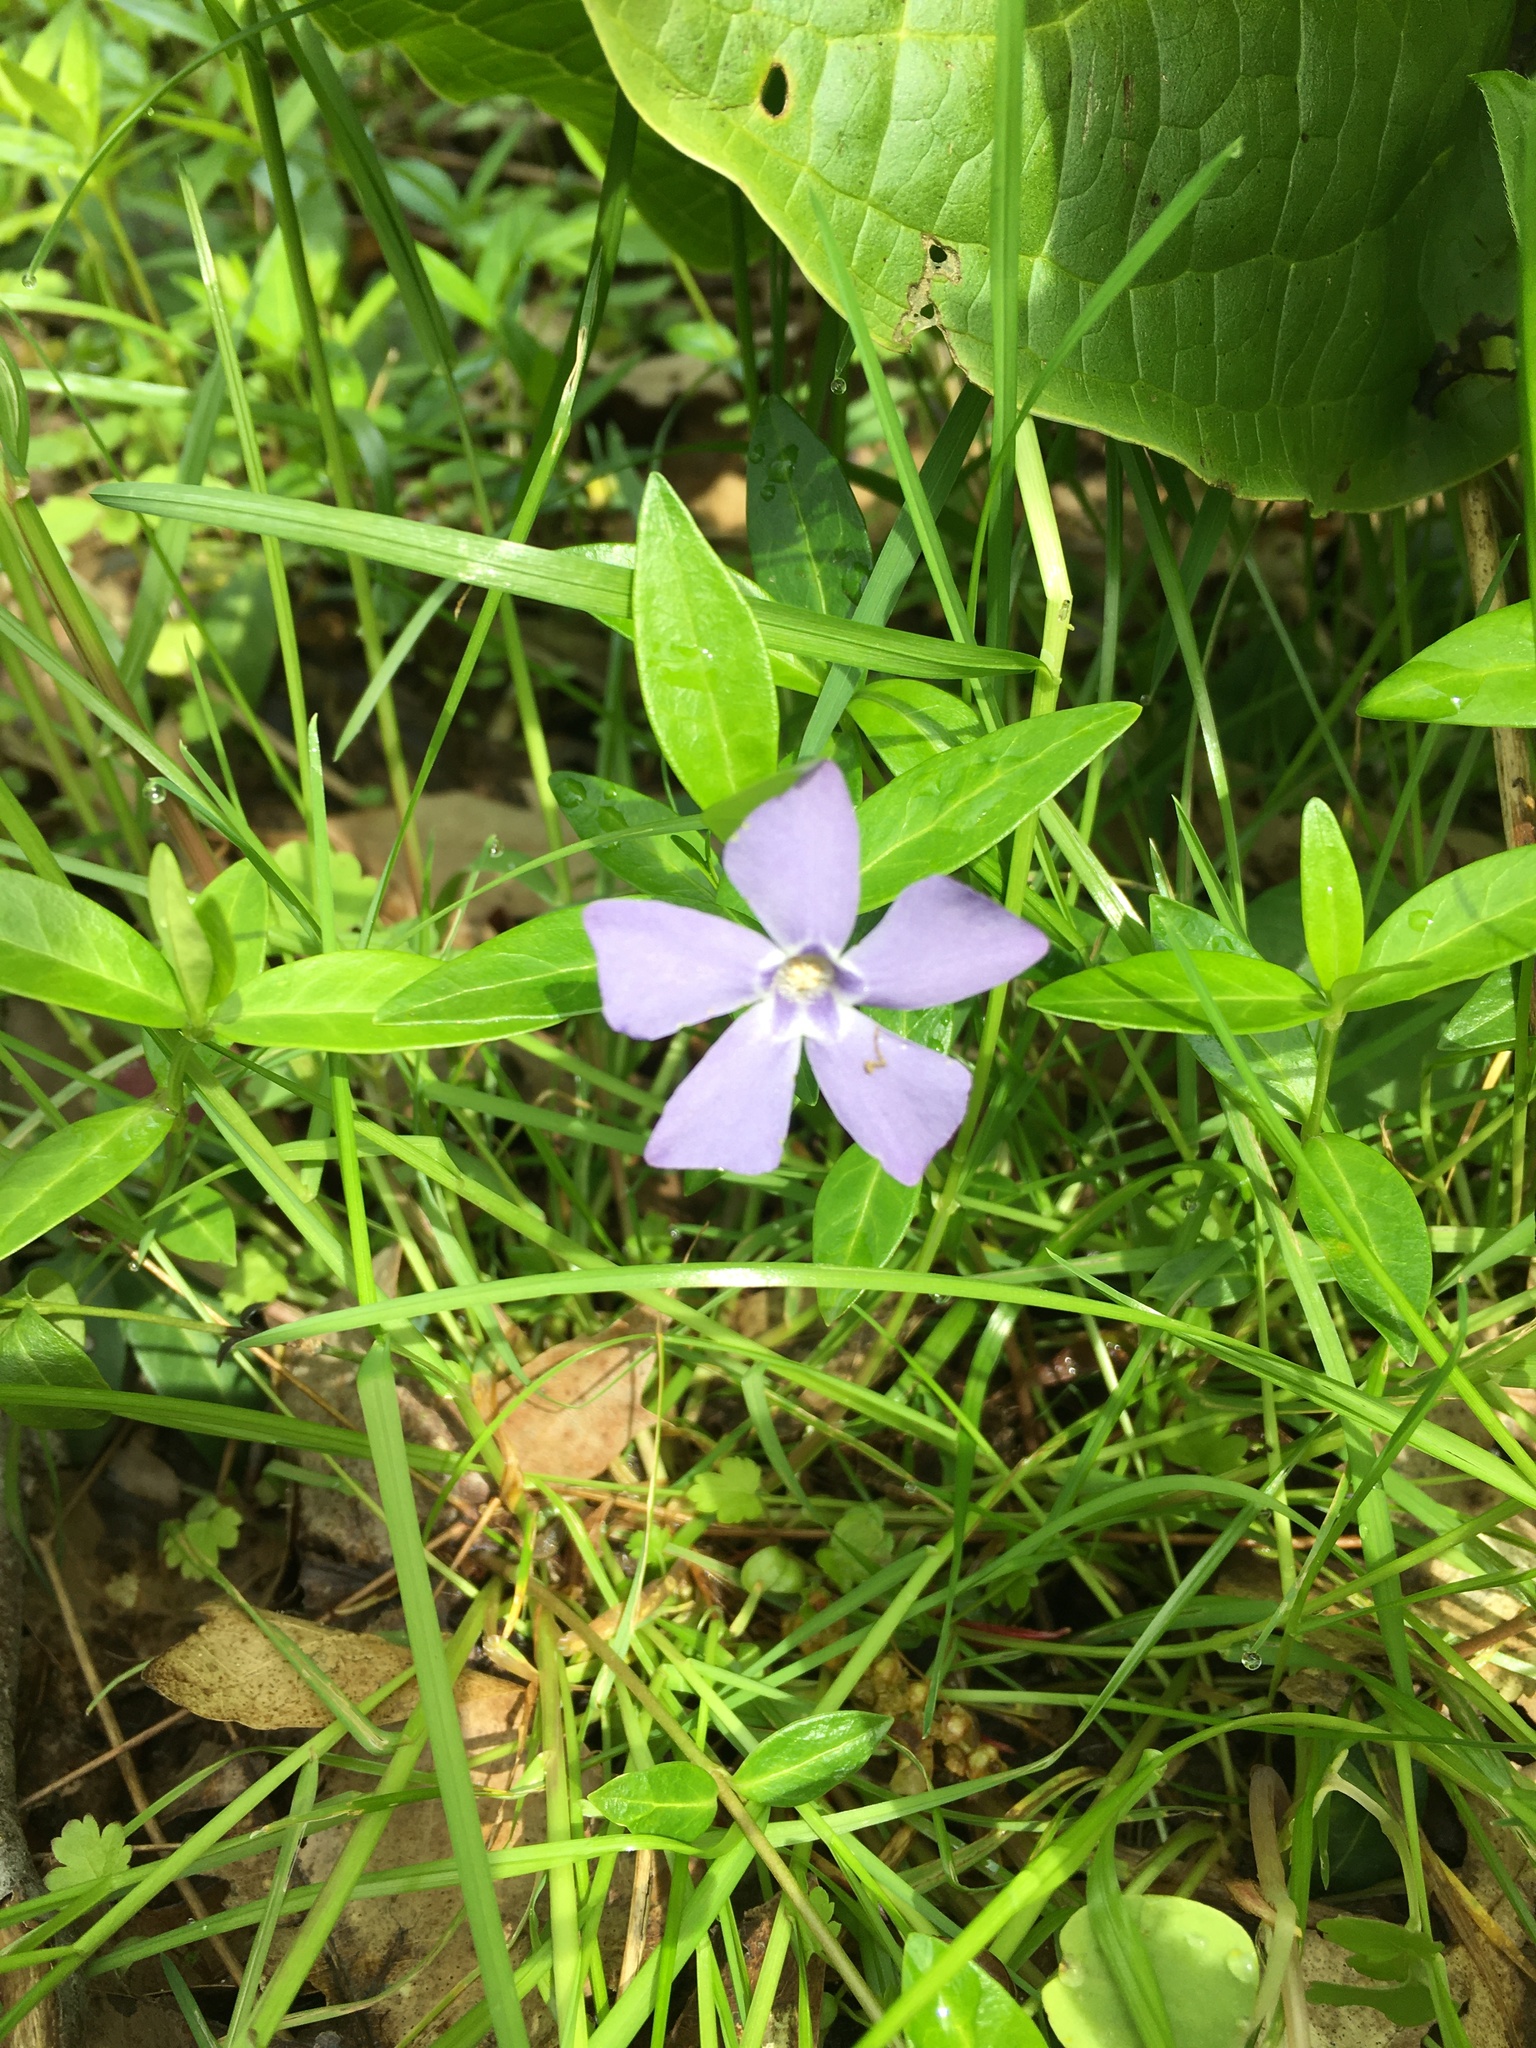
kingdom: Plantae
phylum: Tracheophyta
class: Magnoliopsida
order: Gentianales
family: Apocynaceae
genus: Vinca
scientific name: Vinca minor
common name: Lesser periwinkle
